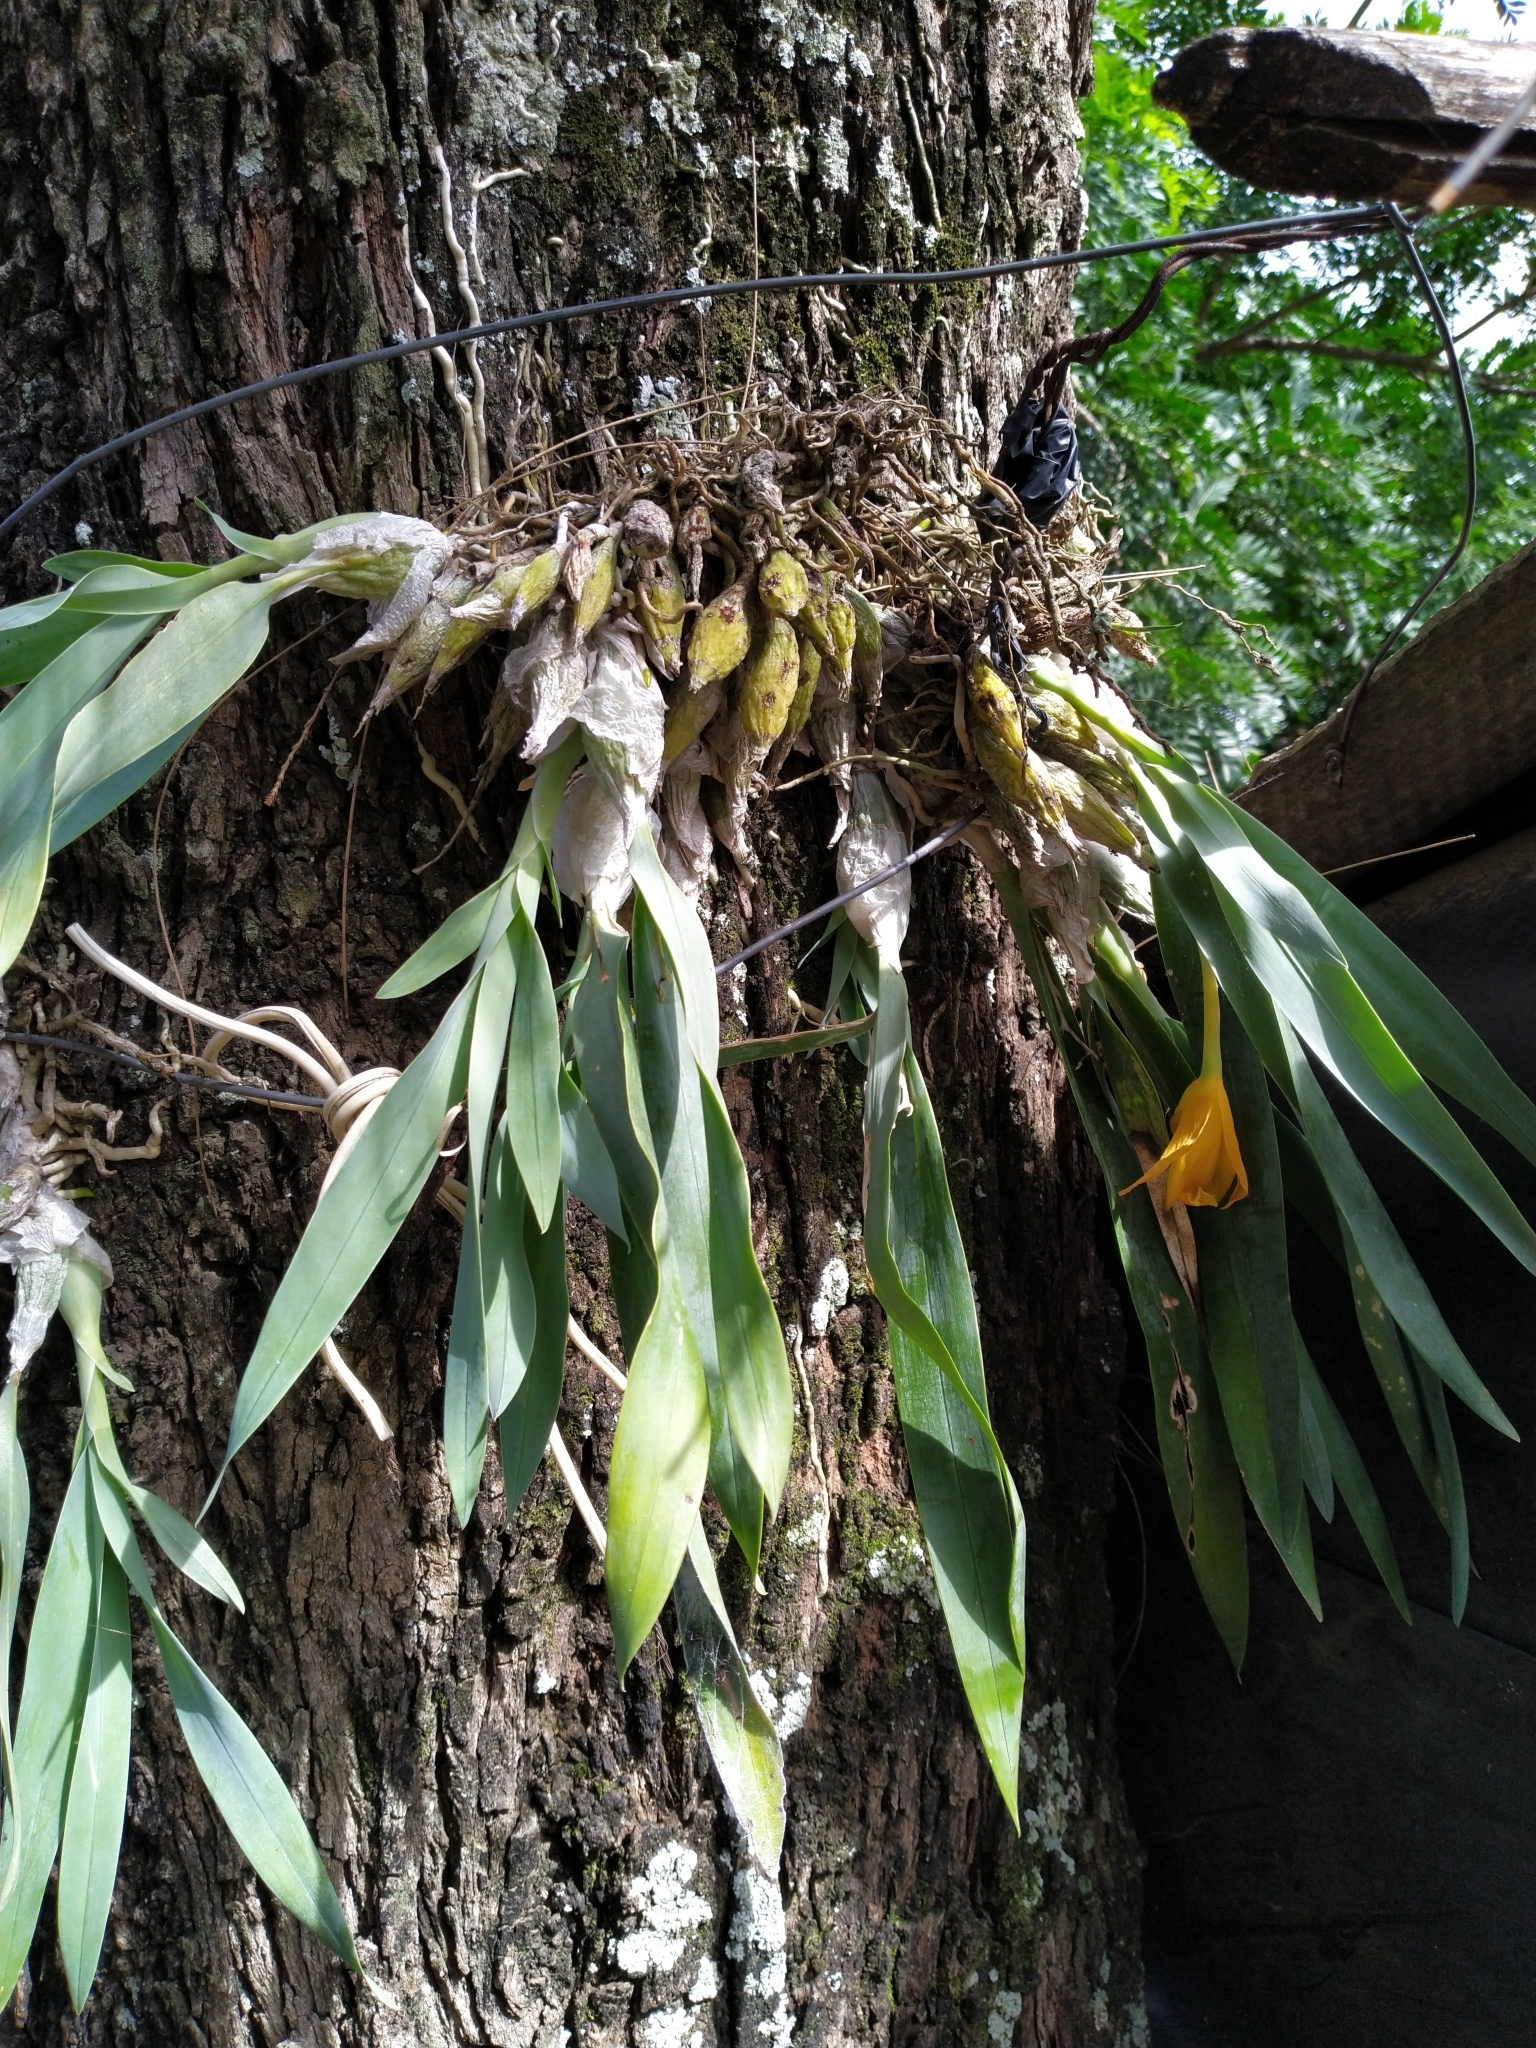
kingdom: Plantae
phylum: Tracheophyta
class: Liliopsida
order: Asparagales
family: Orchidaceae
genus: Prosthechea
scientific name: Prosthechea karwinskii
